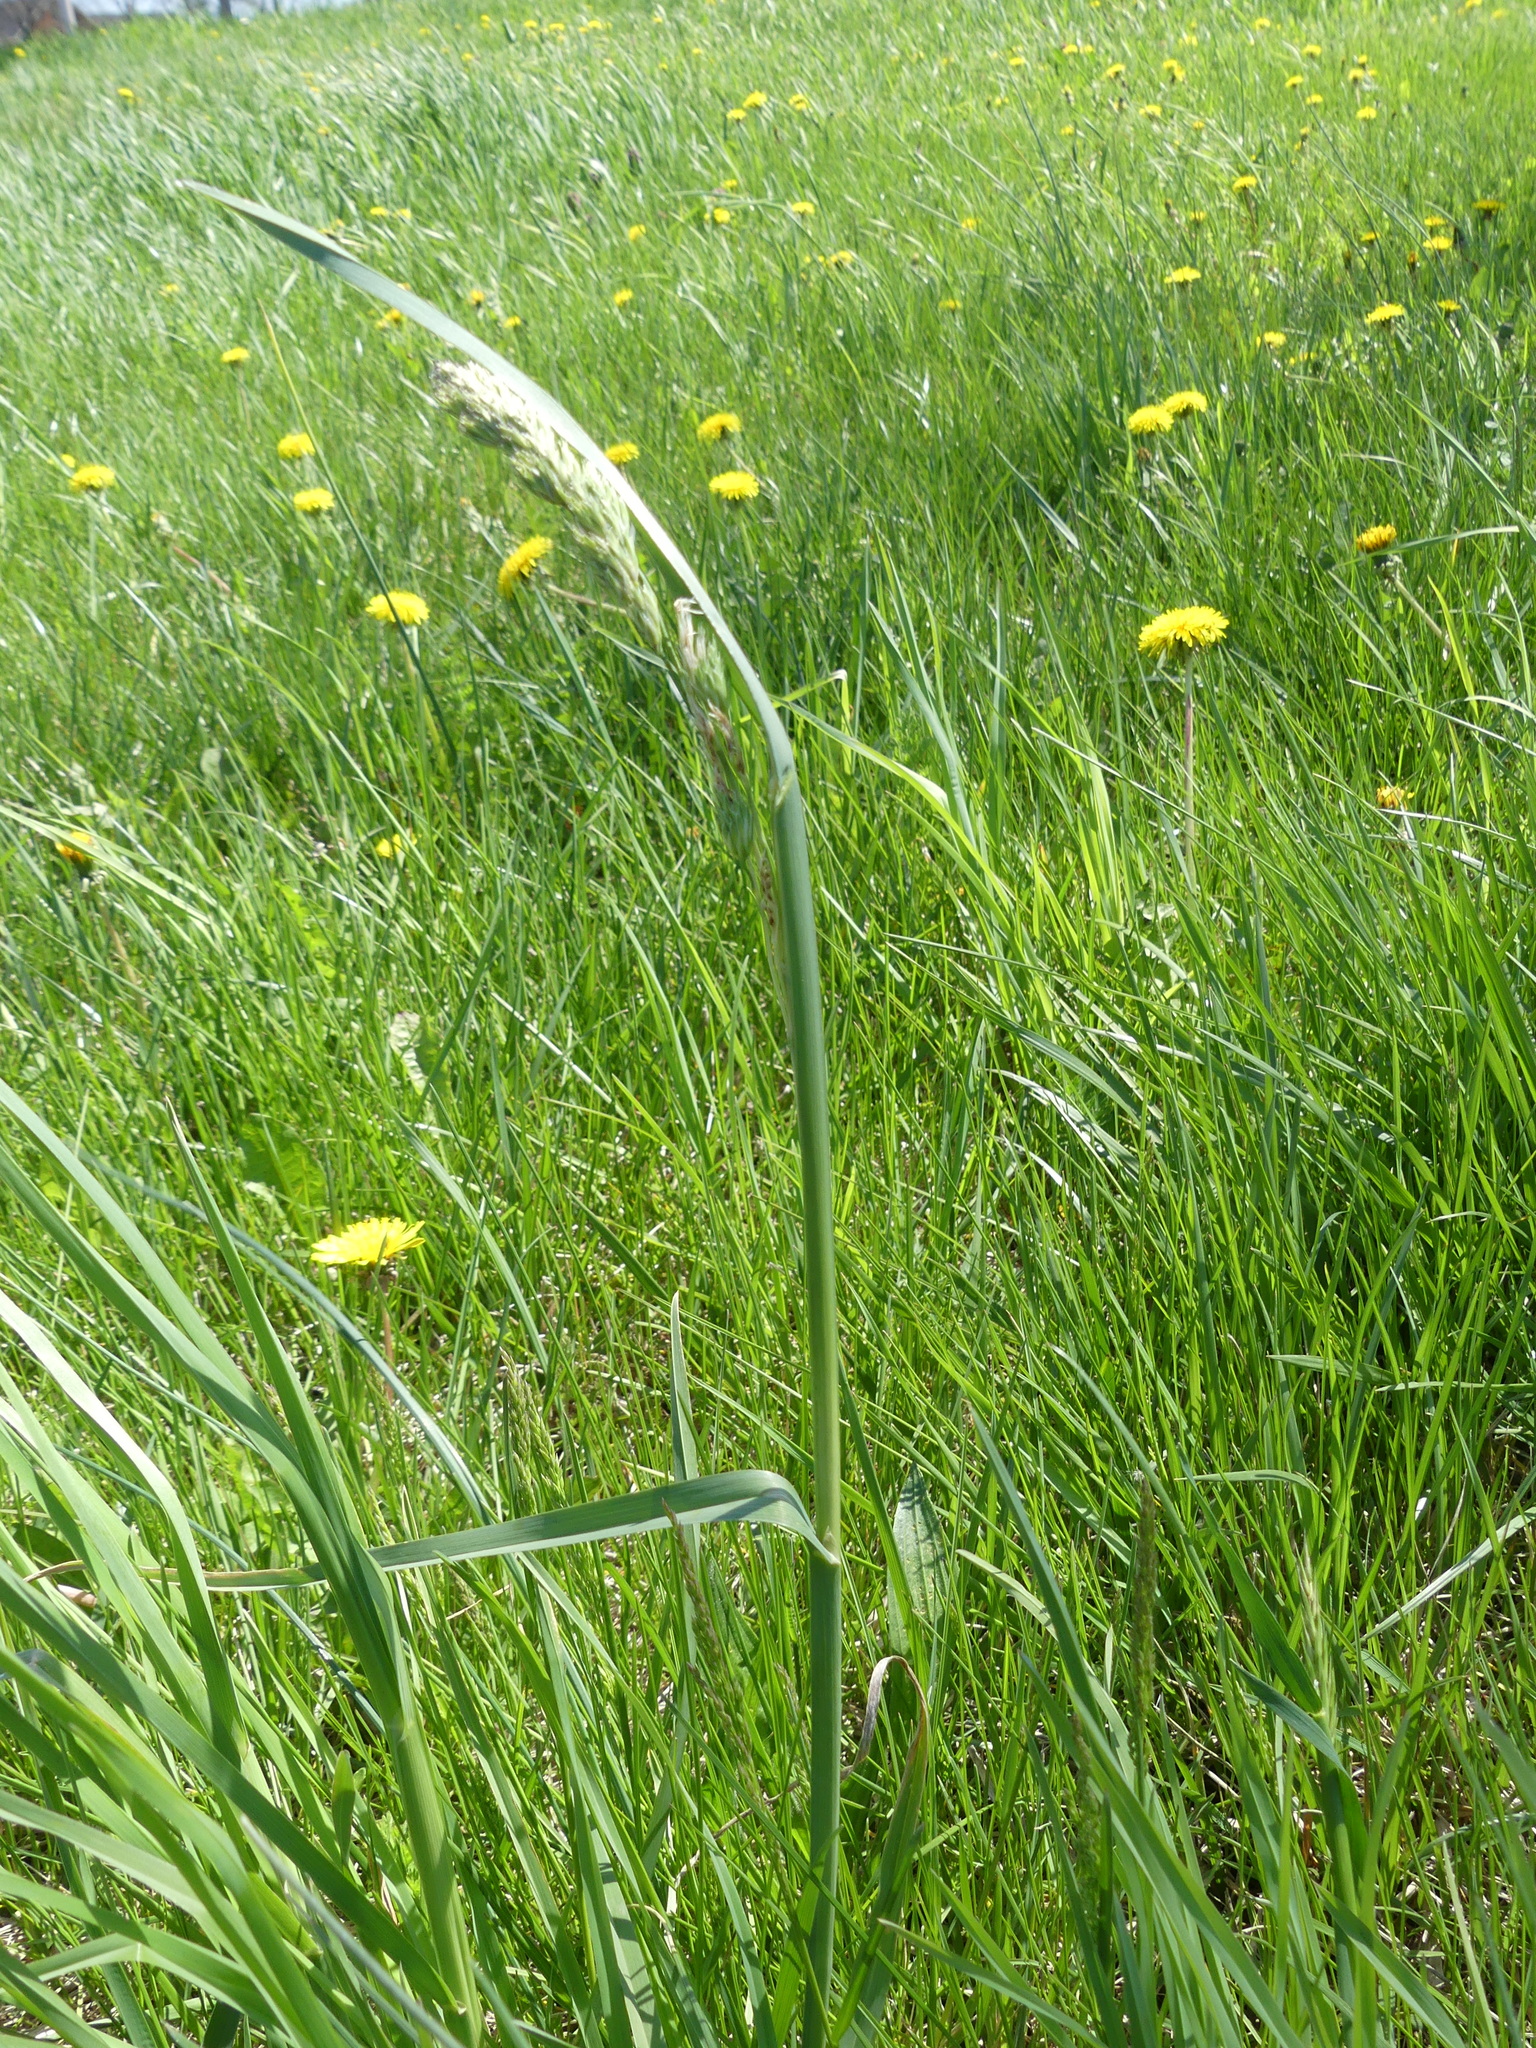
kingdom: Plantae
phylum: Tracheophyta
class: Liliopsida
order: Poales
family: Poaceae
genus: Dactylis
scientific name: Dactylis glomerata
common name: Orchardgrass
